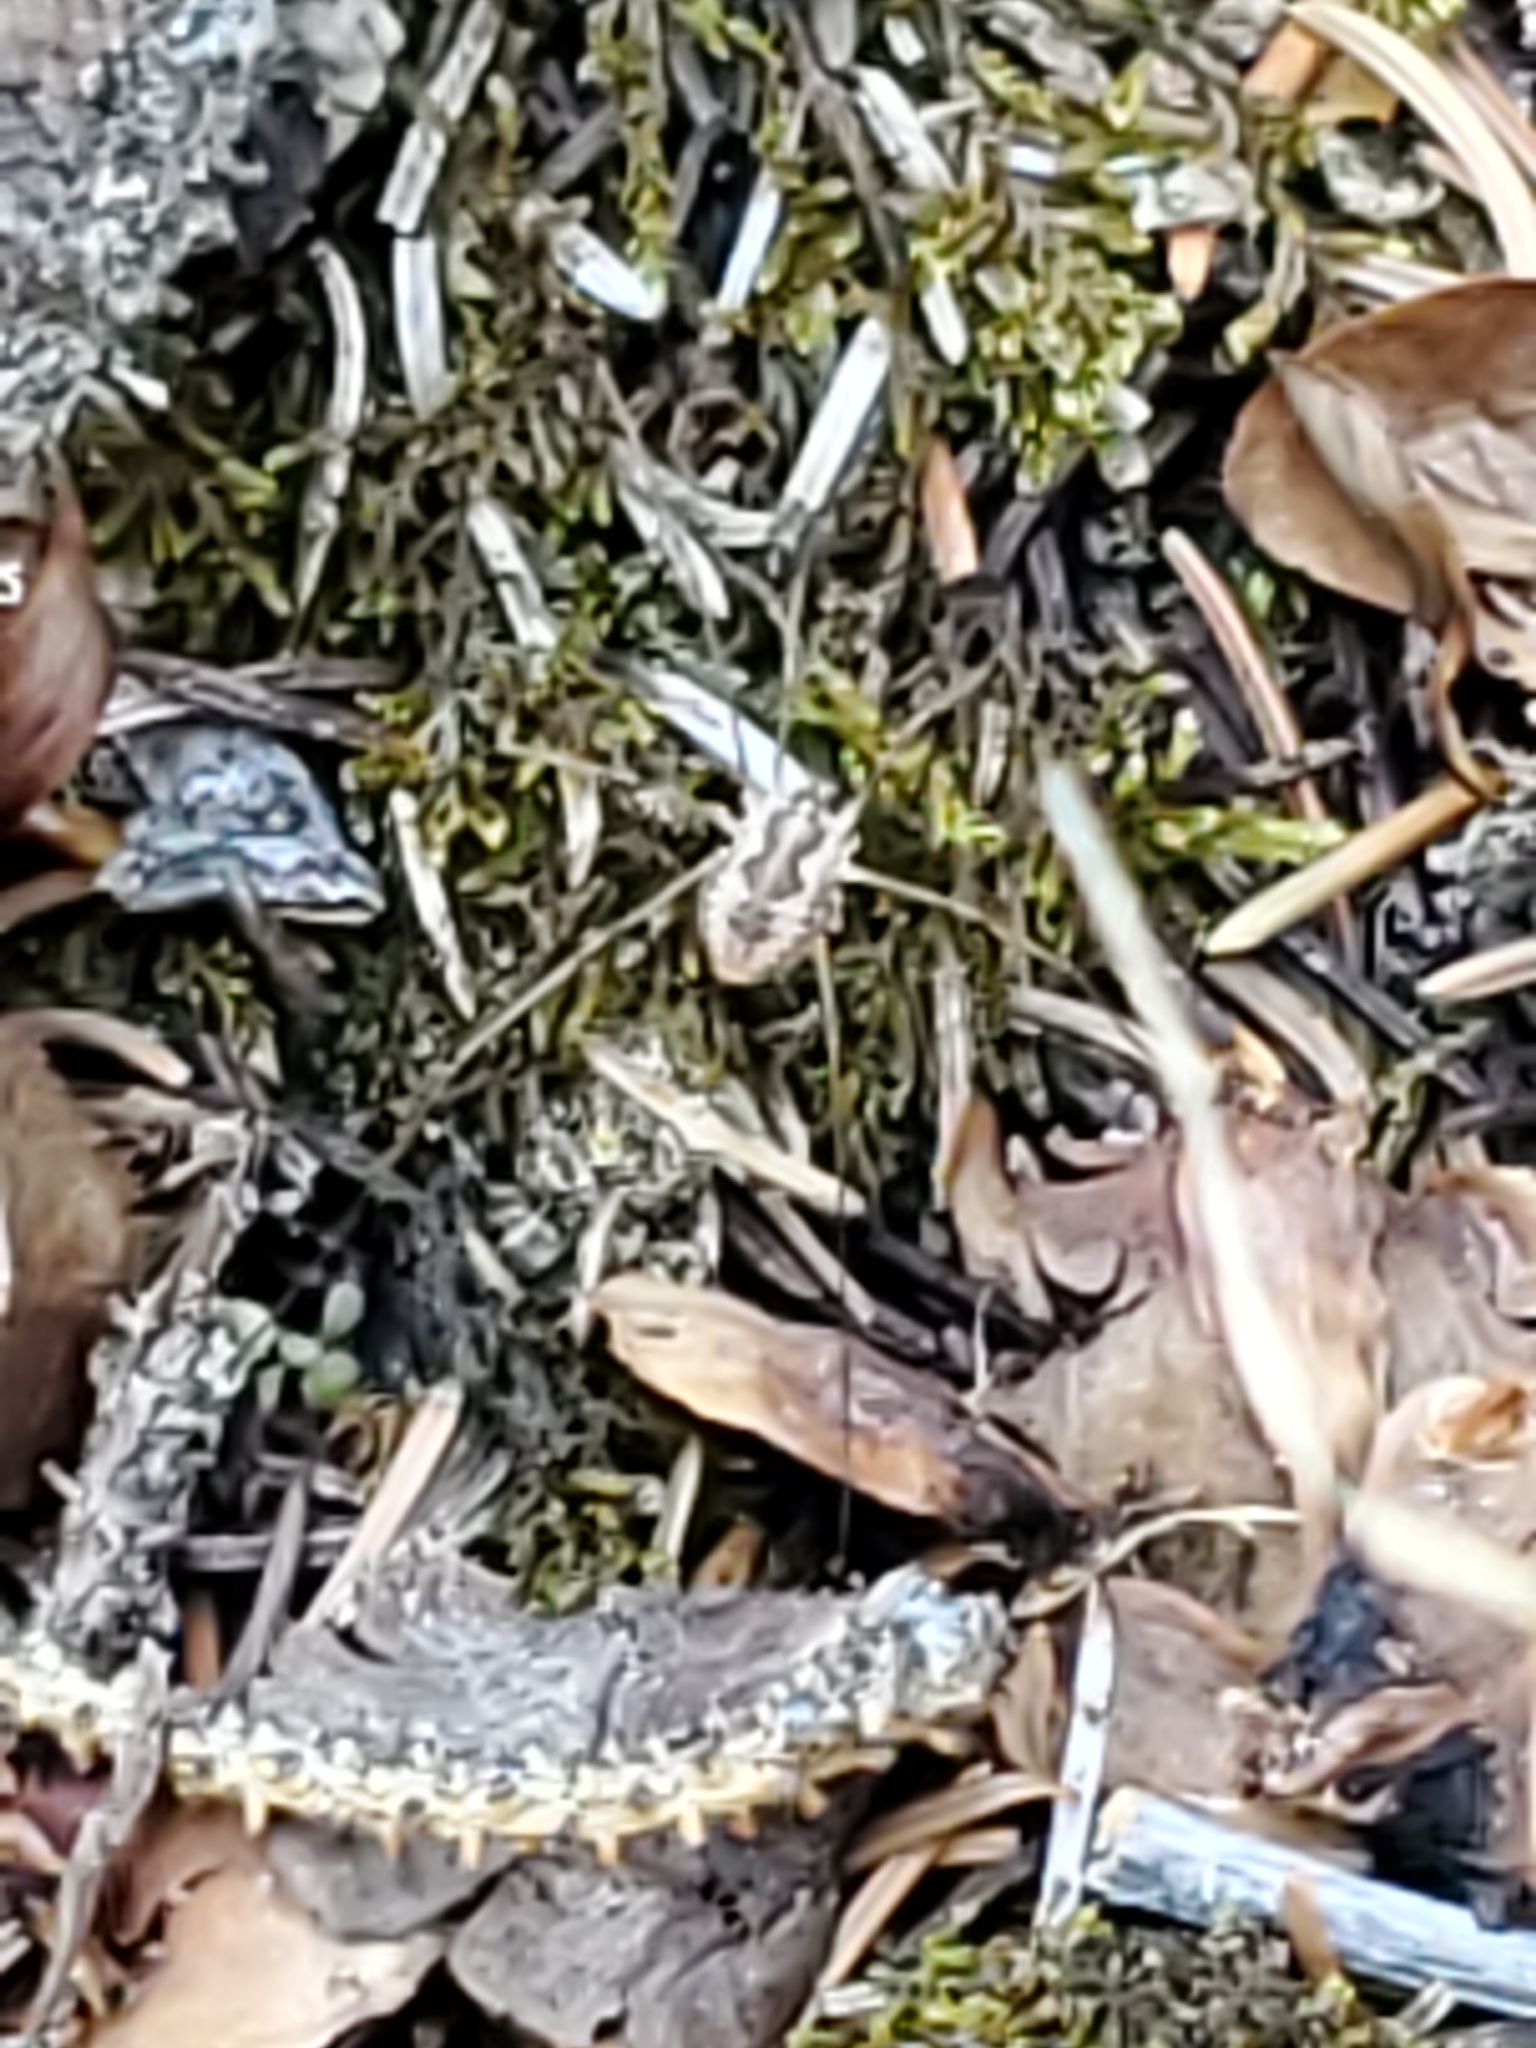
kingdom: Animalia
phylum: Arthropoda
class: Arachnida
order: Opiliones
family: Phalangiidae
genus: Phalangium
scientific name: Phalangium opilio
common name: Daddy longleg
